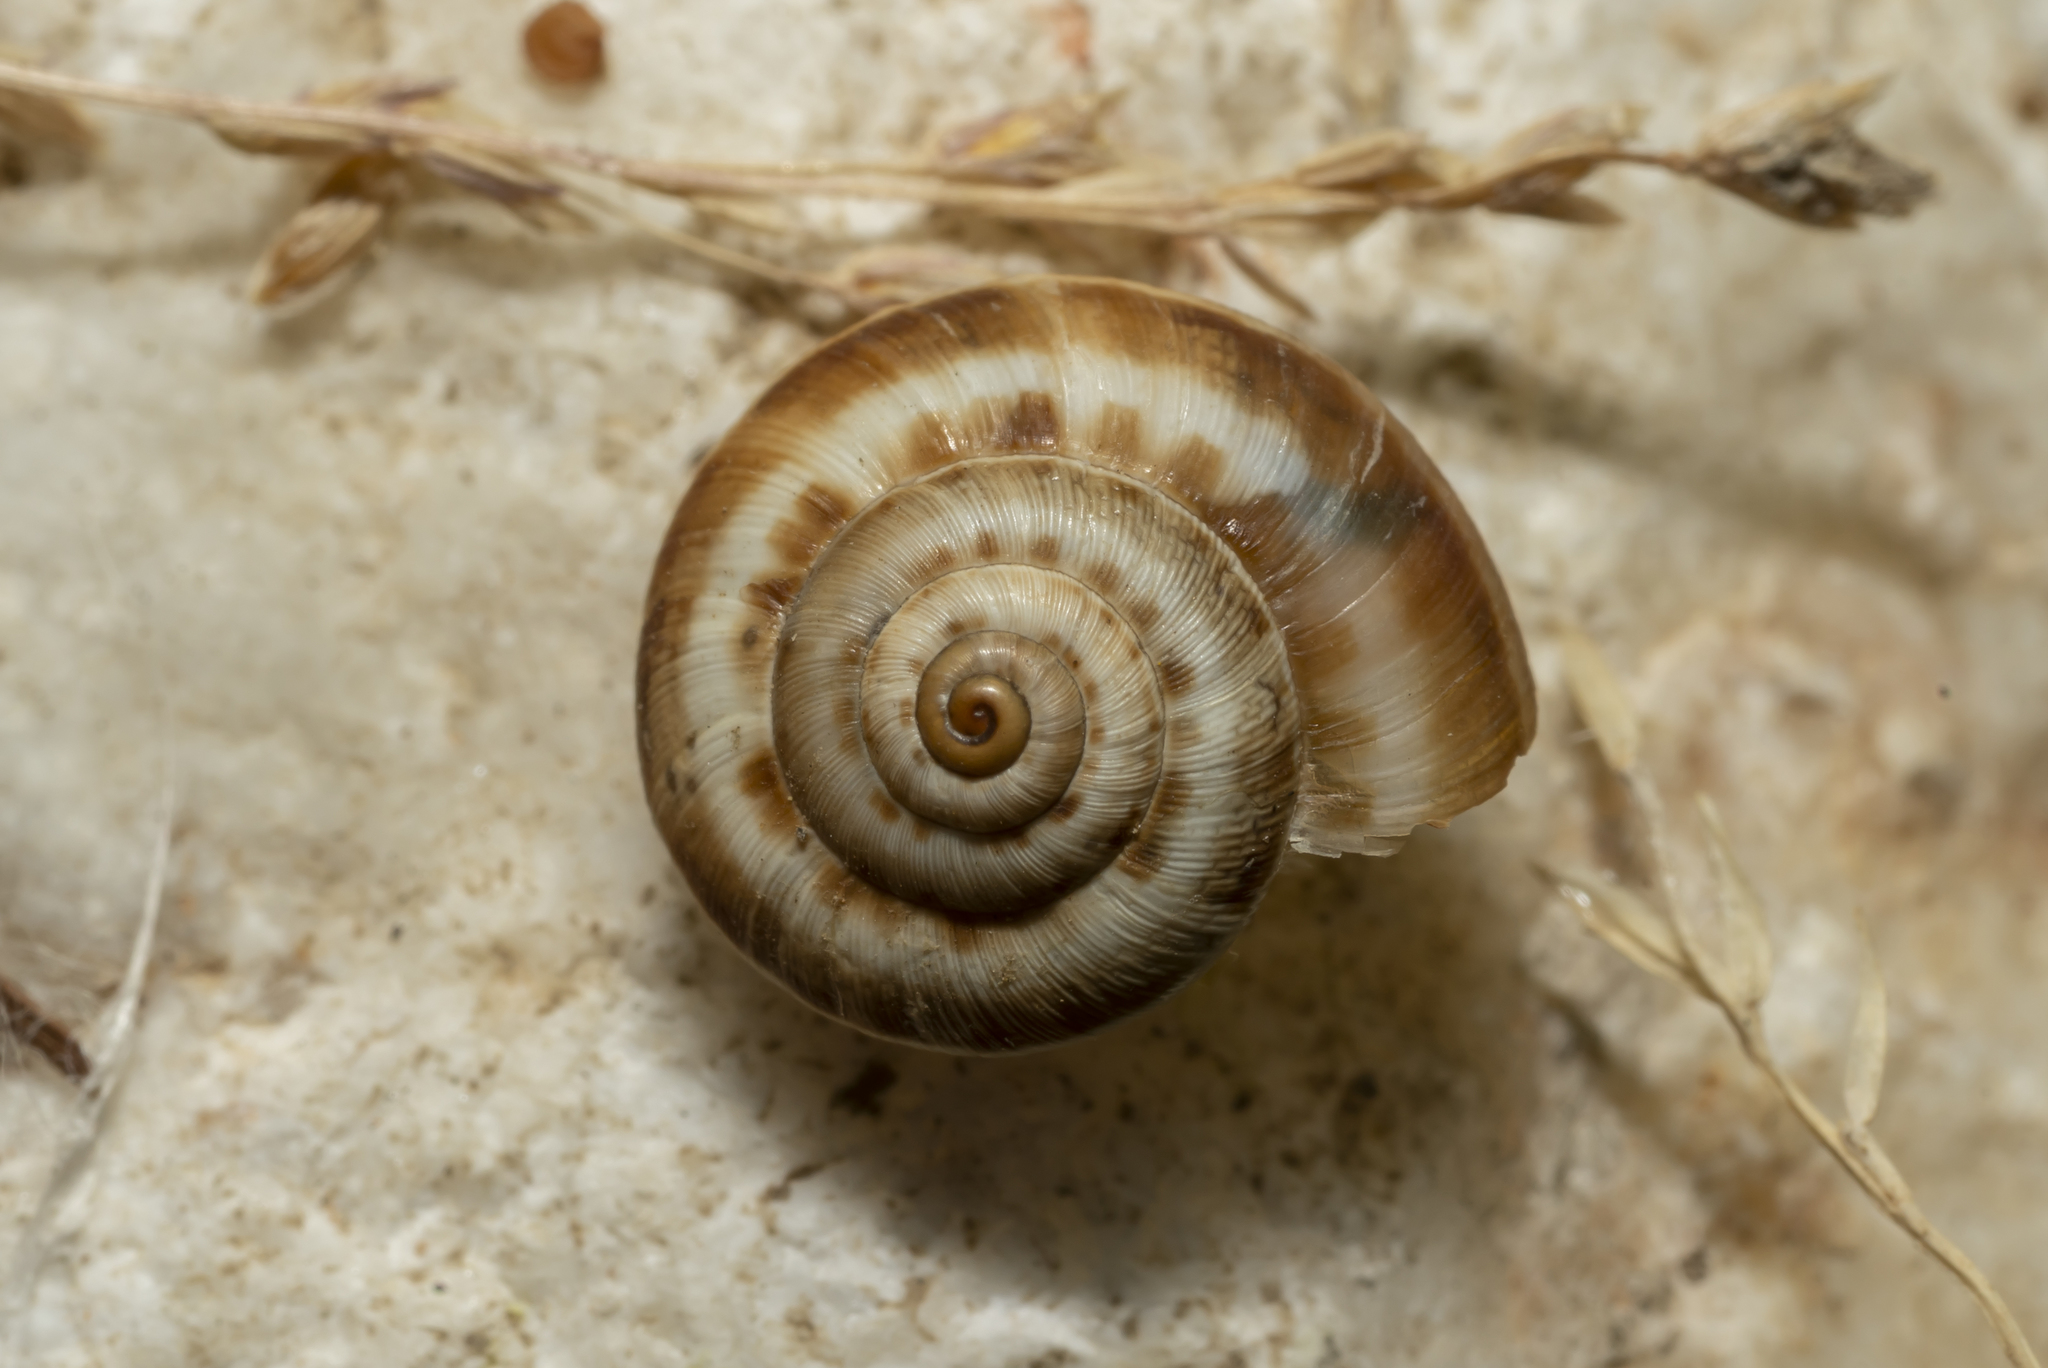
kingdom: Animalia
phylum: Mollusca
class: Gastropoda
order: Stylommatophora
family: Geomitridae
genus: Xeropicta
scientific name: Xeropicta krynickii
